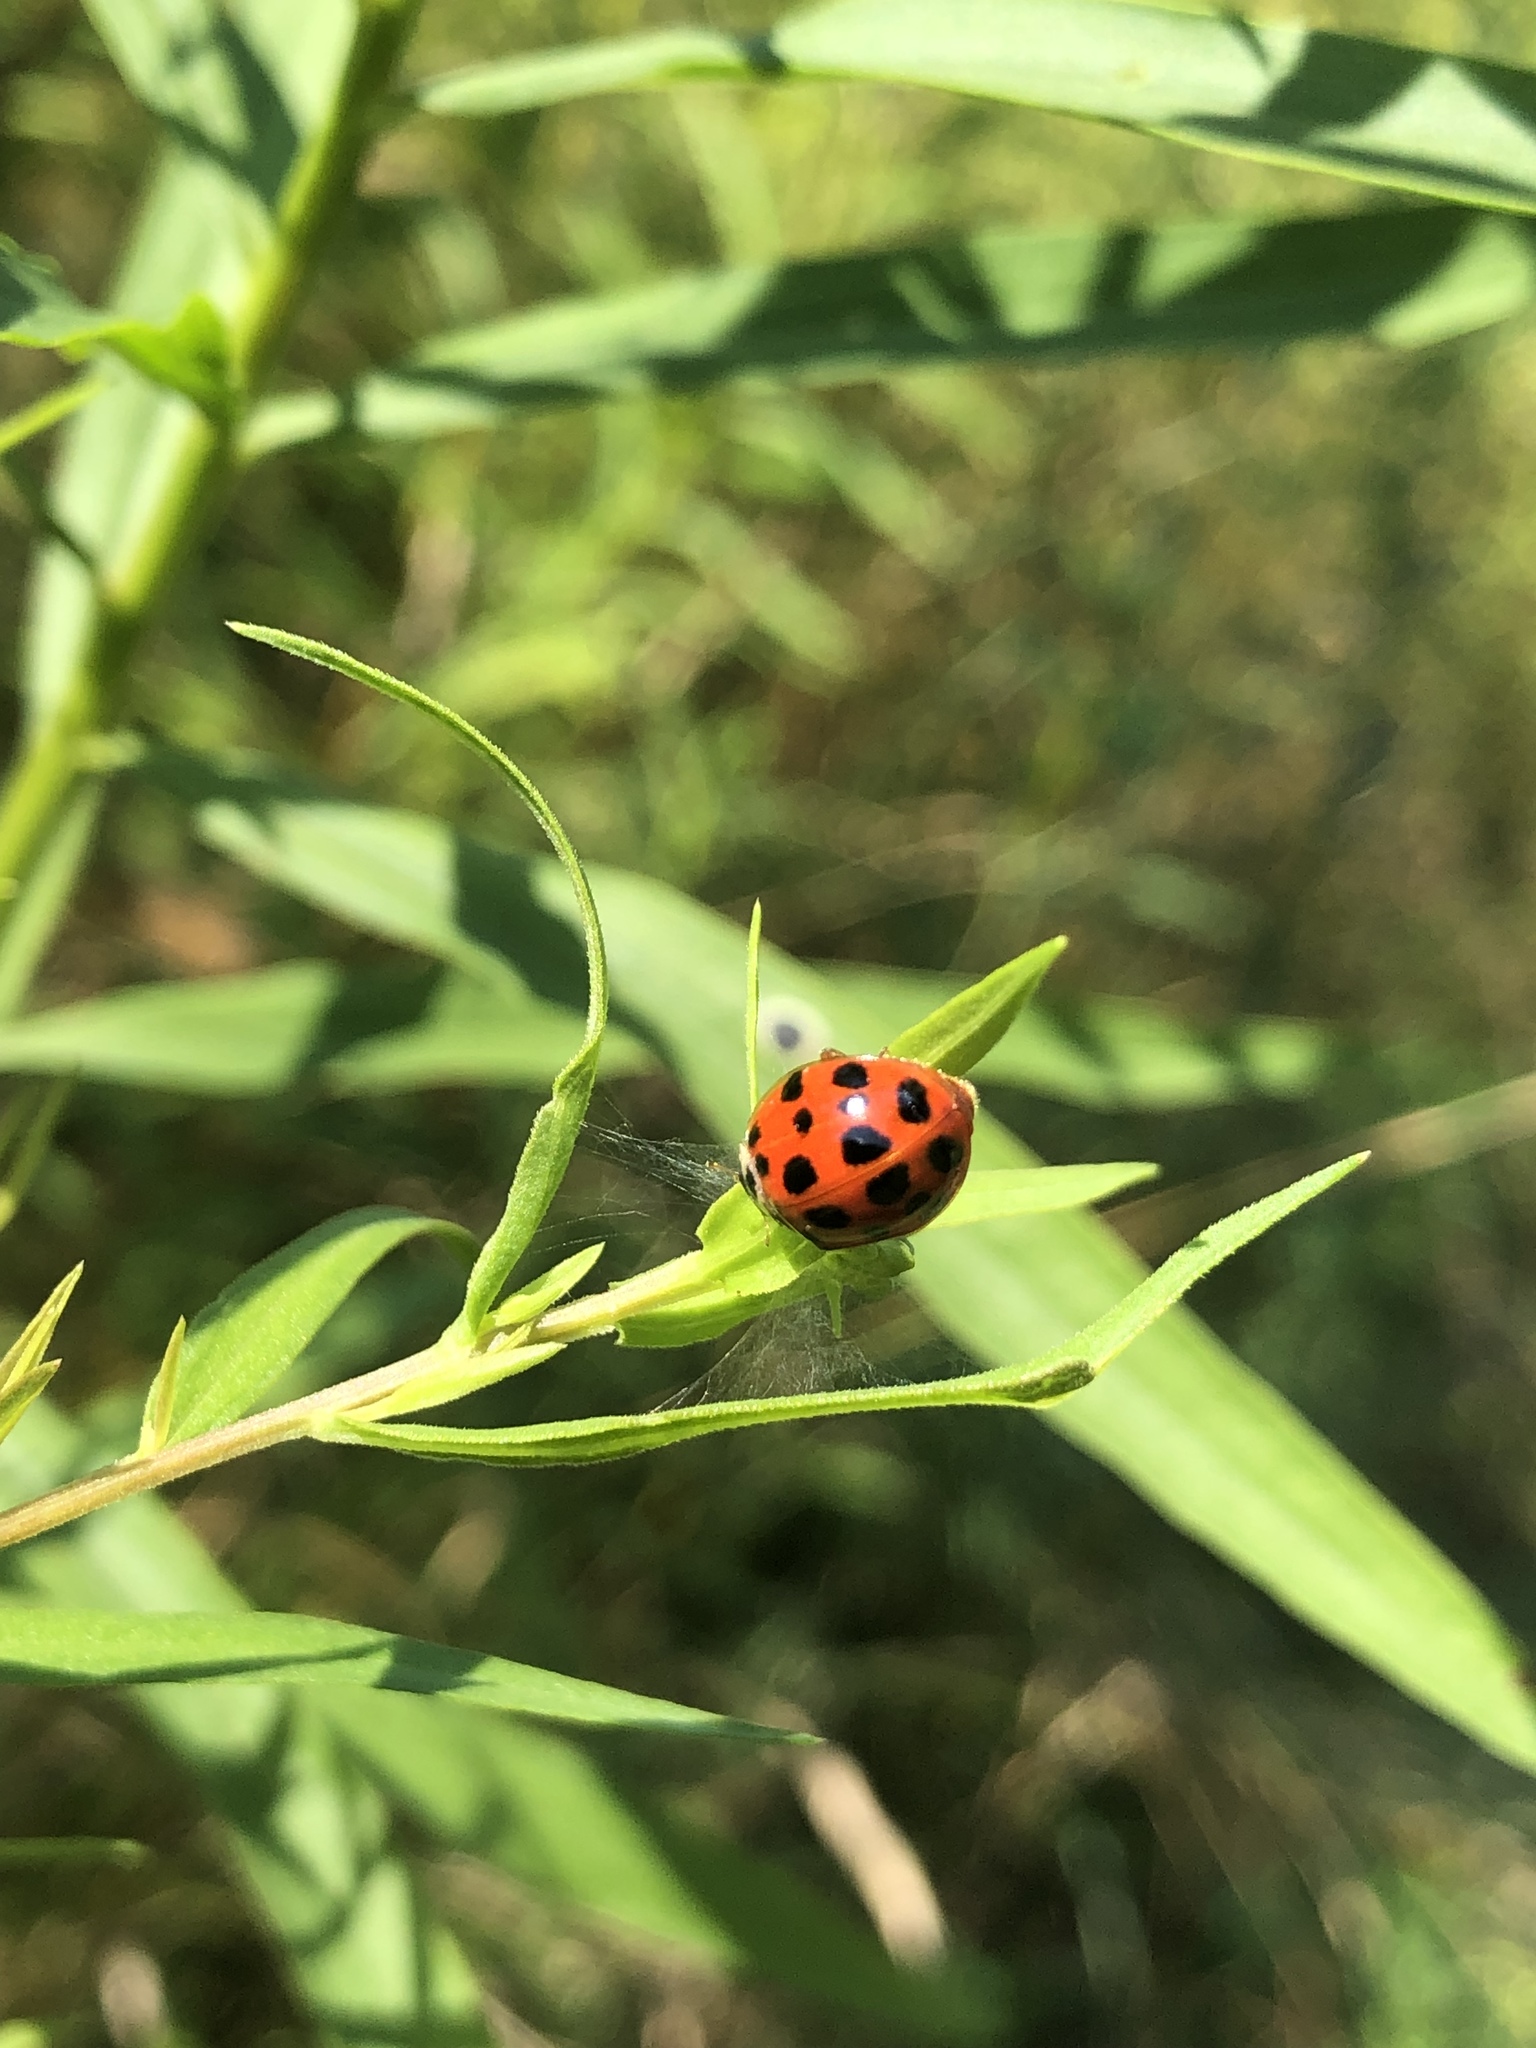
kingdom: Animalia
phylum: Arthropoda
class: Insecta
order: Coleoptera
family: Coccinellidae
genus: Harmonia
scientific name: Harmonia axyridis
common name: Harlequin ladybird
